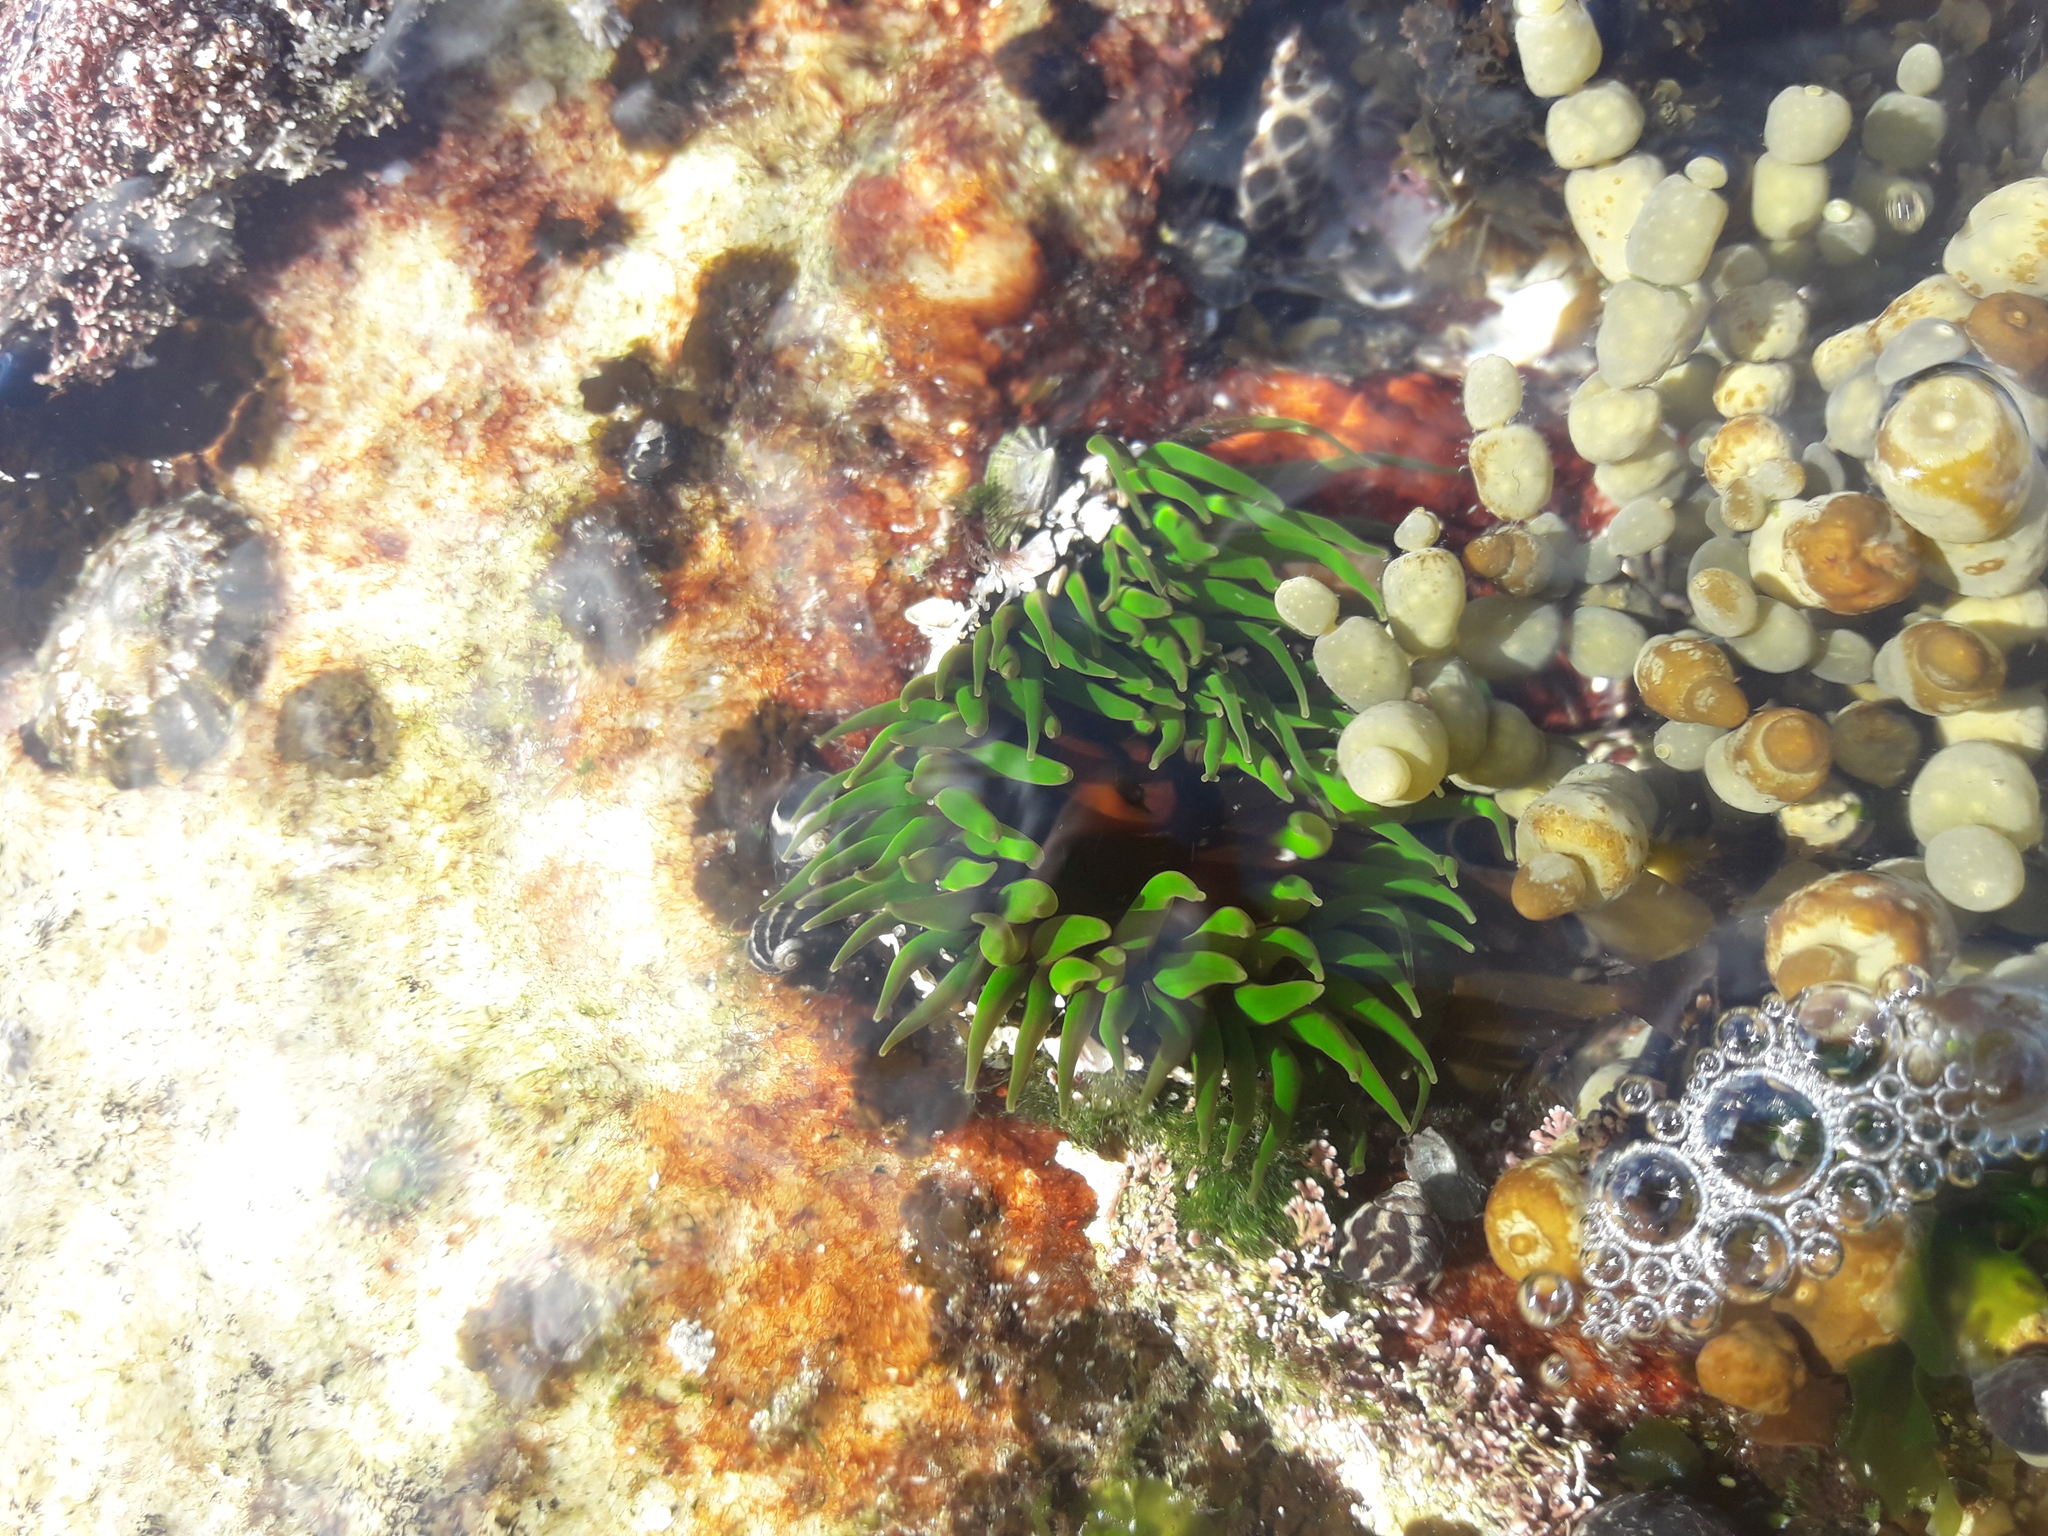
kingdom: Animalia
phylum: Cnidaria
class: Anthozoa
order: Actiniaria
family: Actiniidae
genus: Aulactinia
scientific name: Aulactinia veratra
